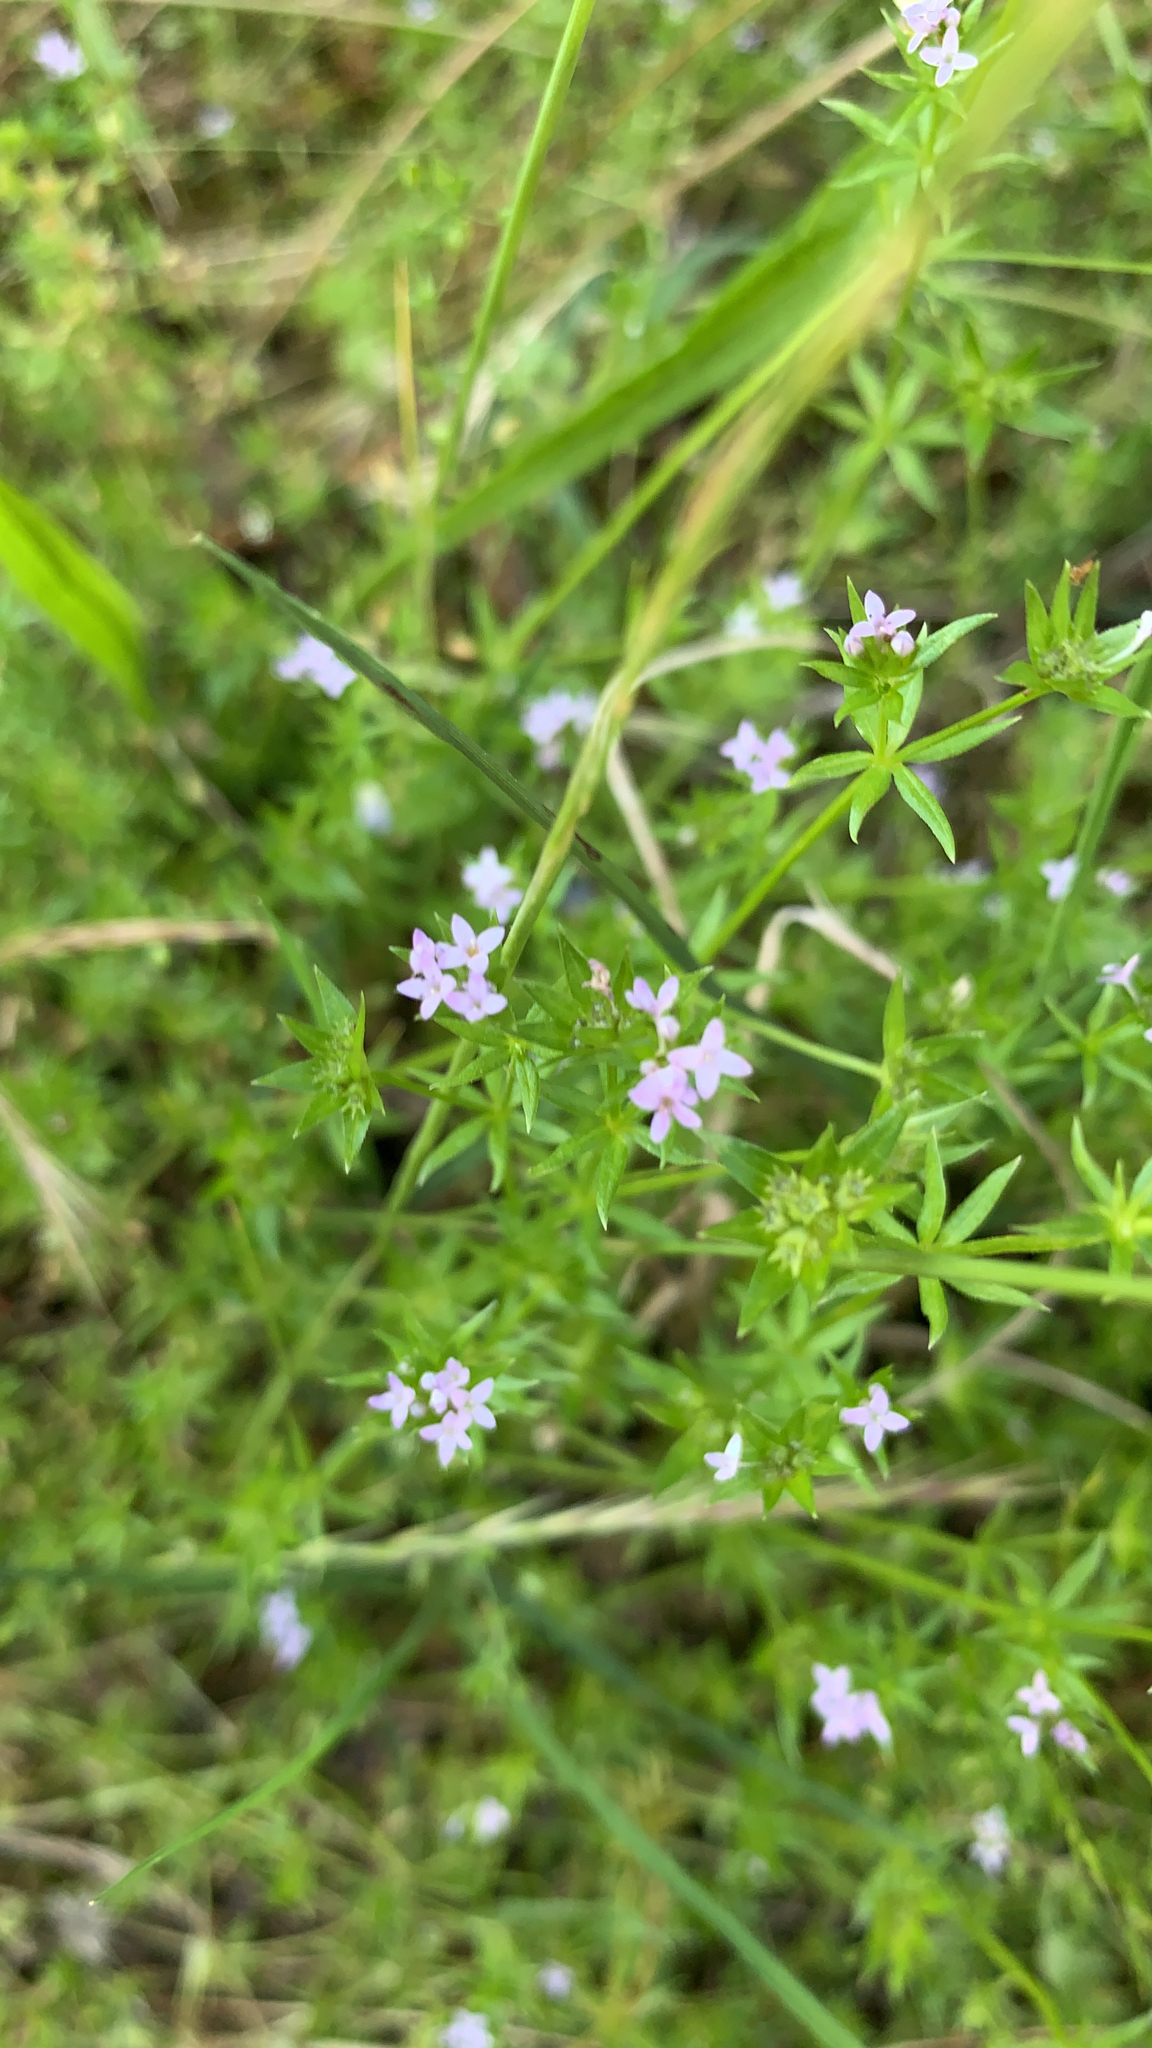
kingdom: Plantae
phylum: Tracheophyta
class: Magnoliopsida
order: Gentianales
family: Rubiaceae
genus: Sherardia
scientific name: Sherardia arvensis
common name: Field madder
